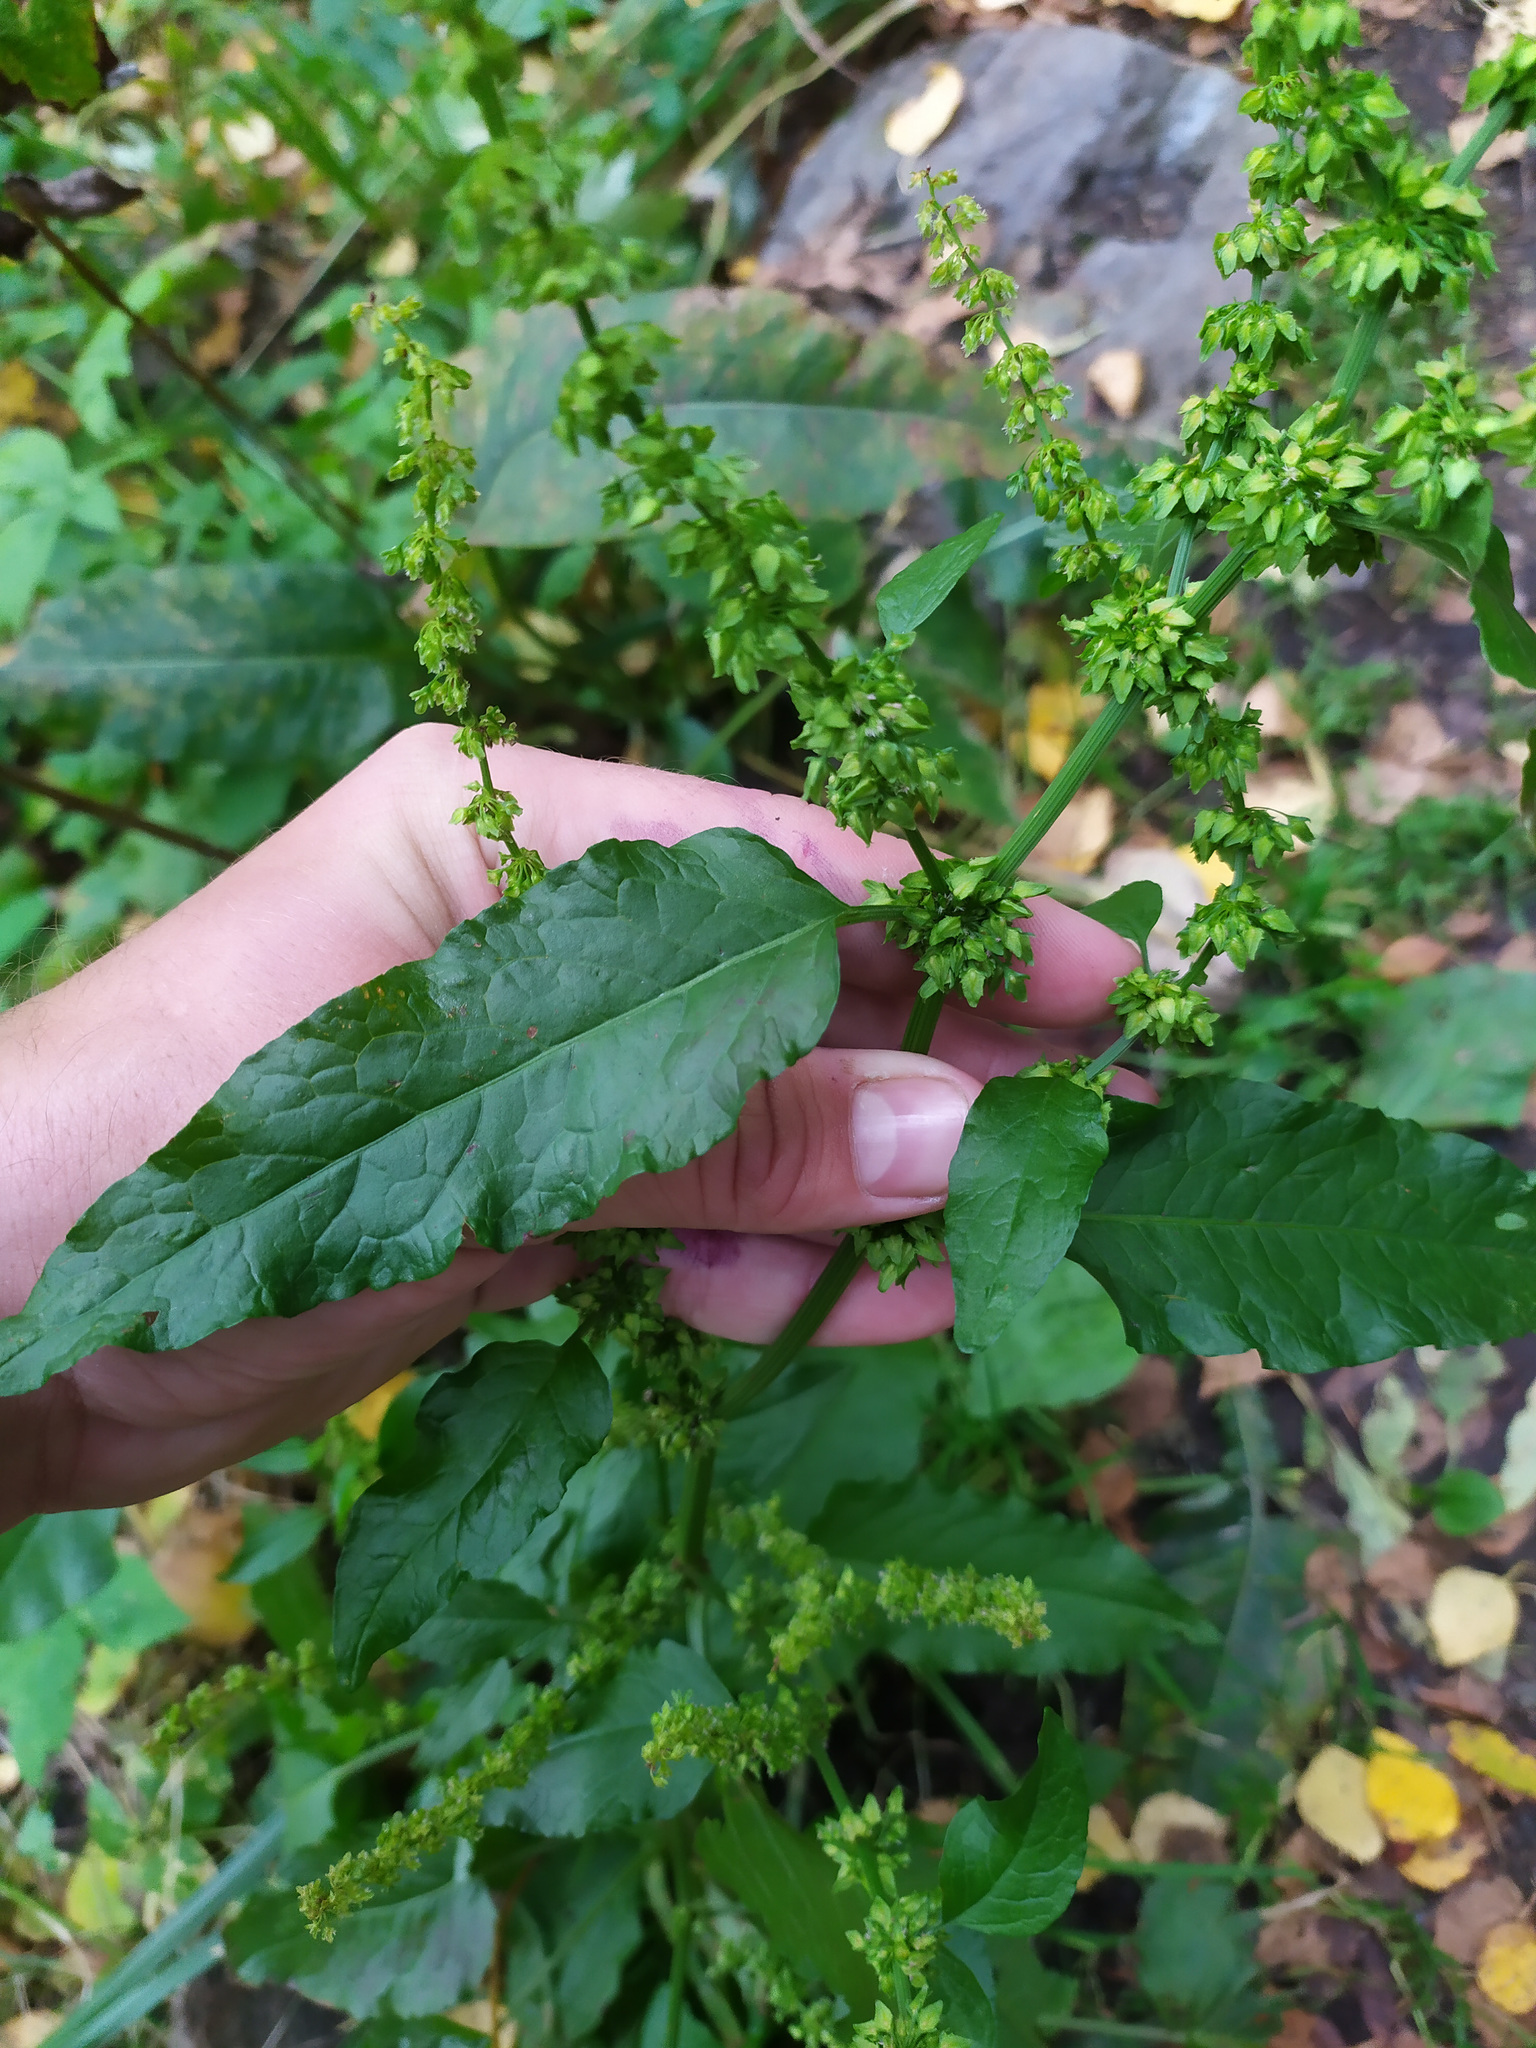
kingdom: Plantae
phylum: Tracheophyta
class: Magnoliopsida
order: Caryophyllales
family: Polygonaceae
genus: Rumex
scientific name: Rumex obtusifolius
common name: Bitter dock
